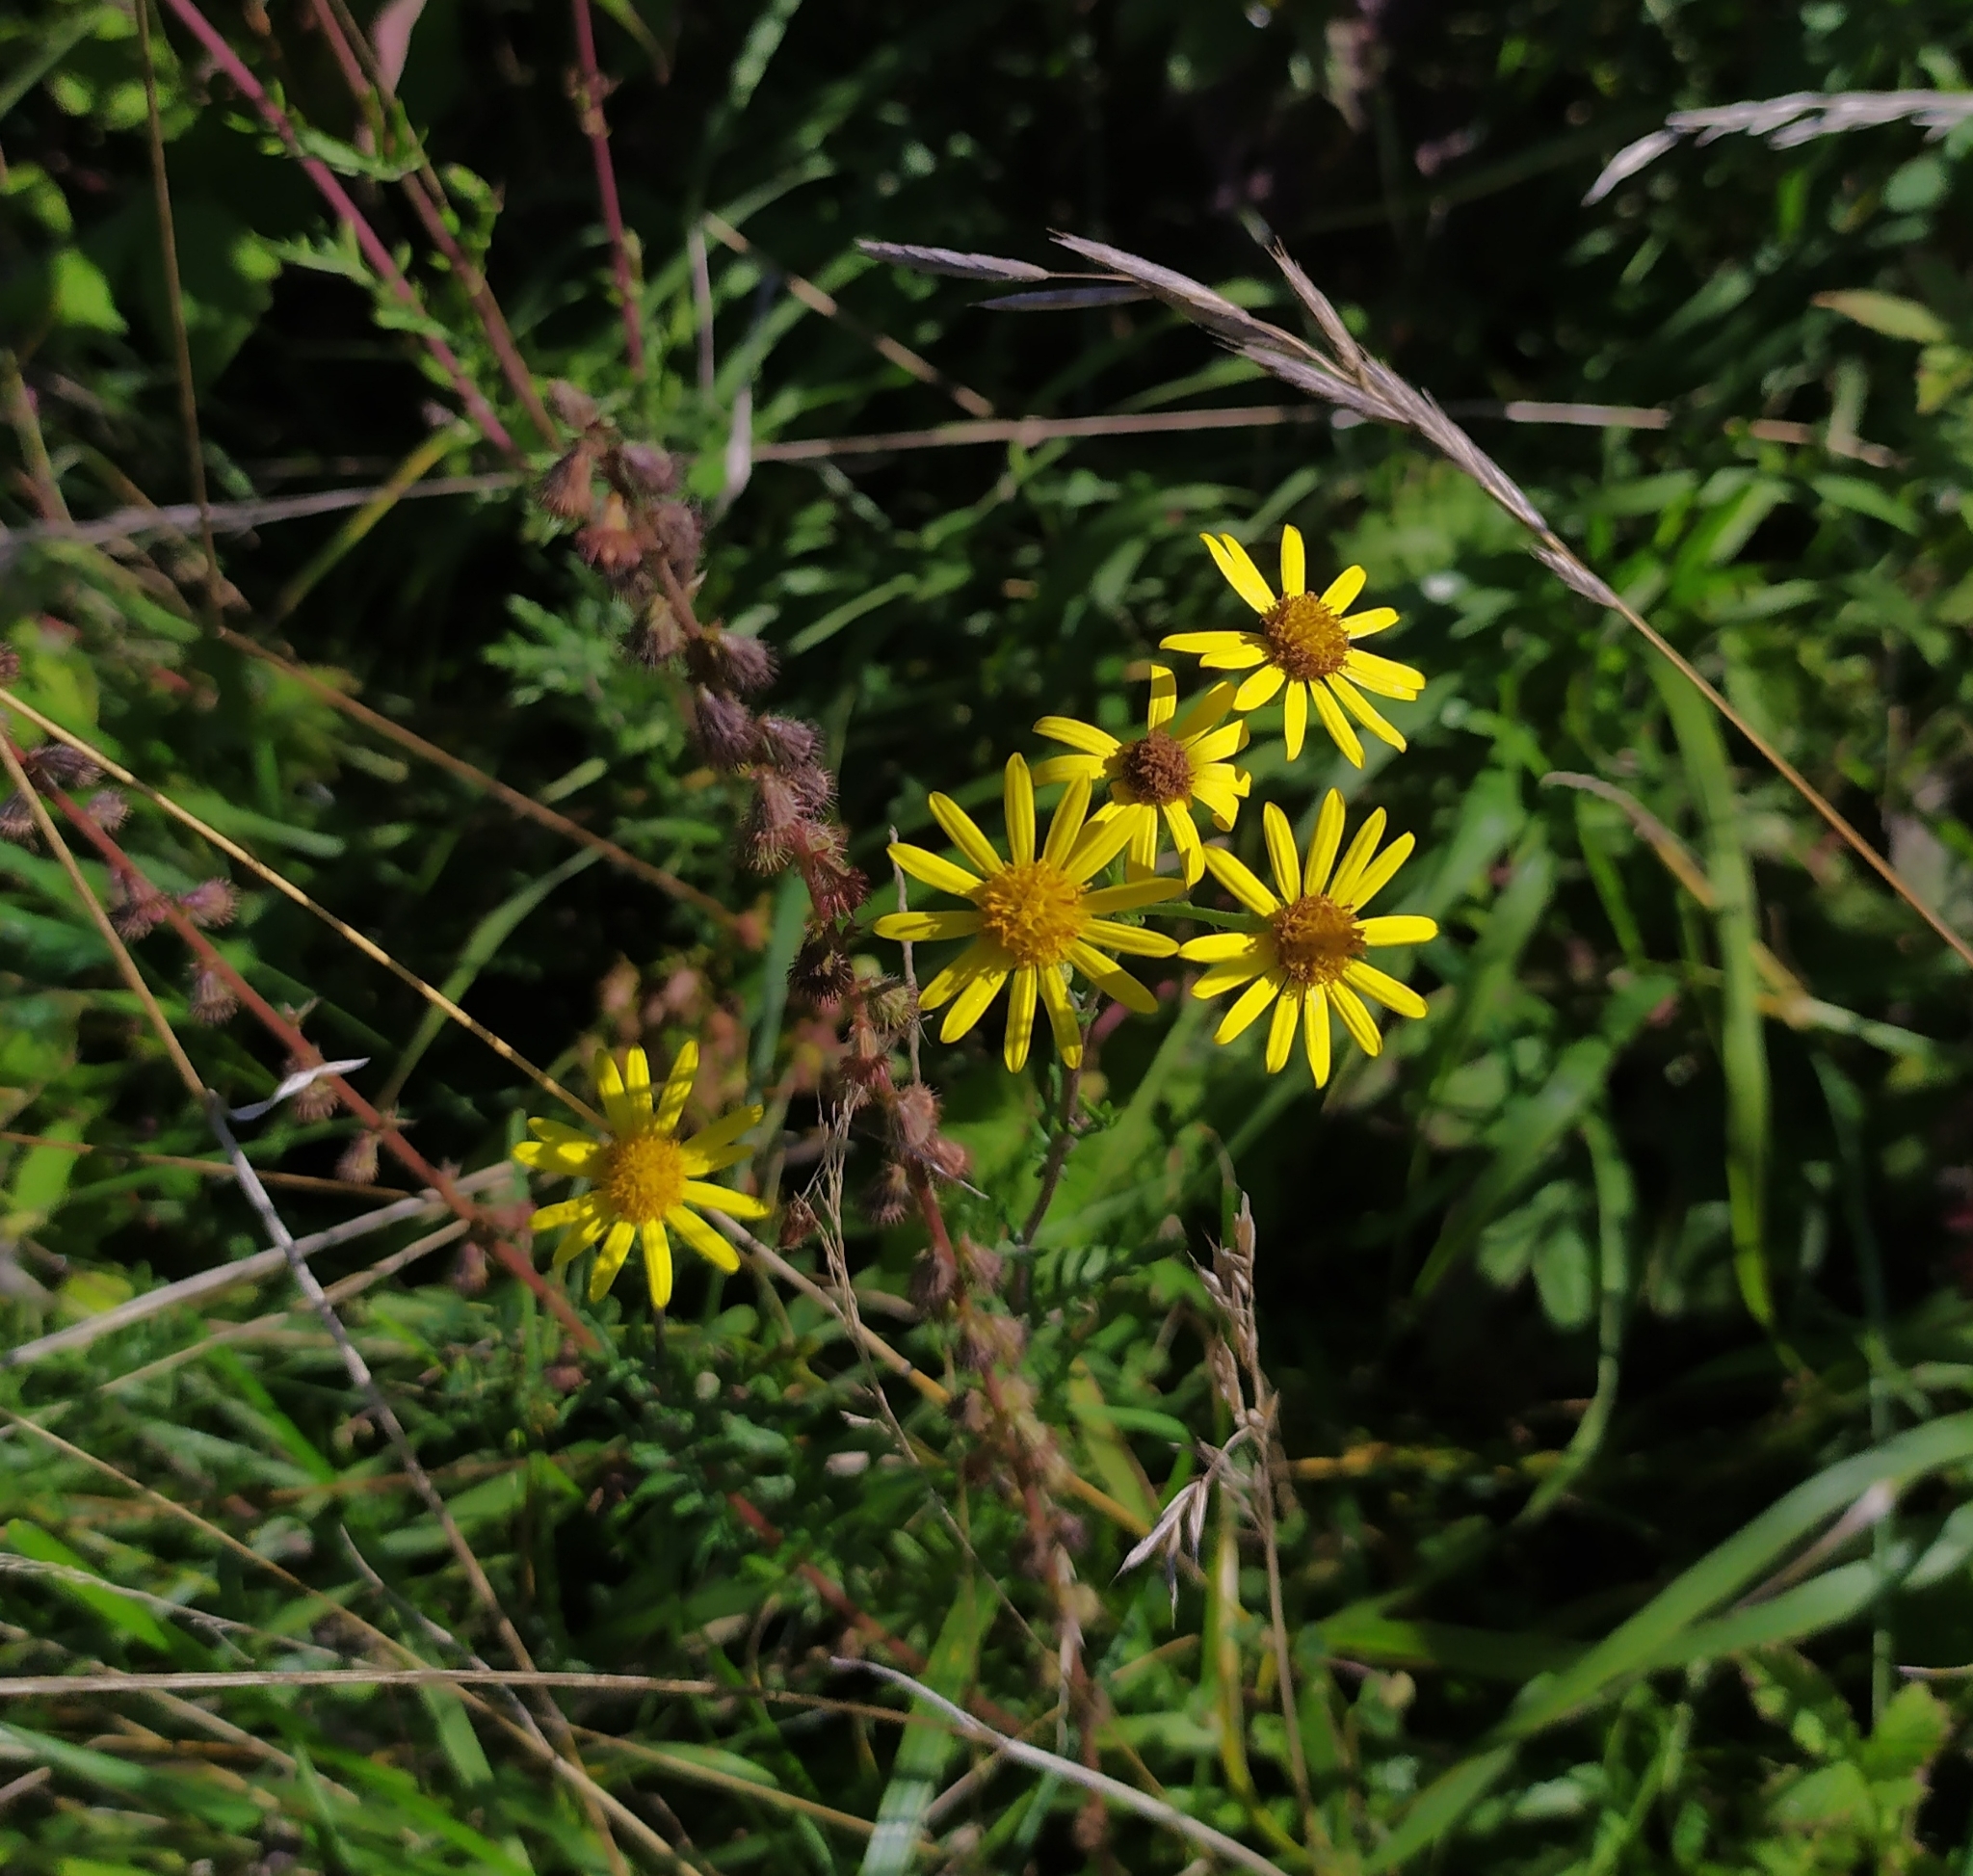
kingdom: Plantae
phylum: Tracheophyta
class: Magnoliopsida
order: Asterales
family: Asteraceae
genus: Jacobaea
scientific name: Jacobaea erucifolia
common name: Hoary ragwort
